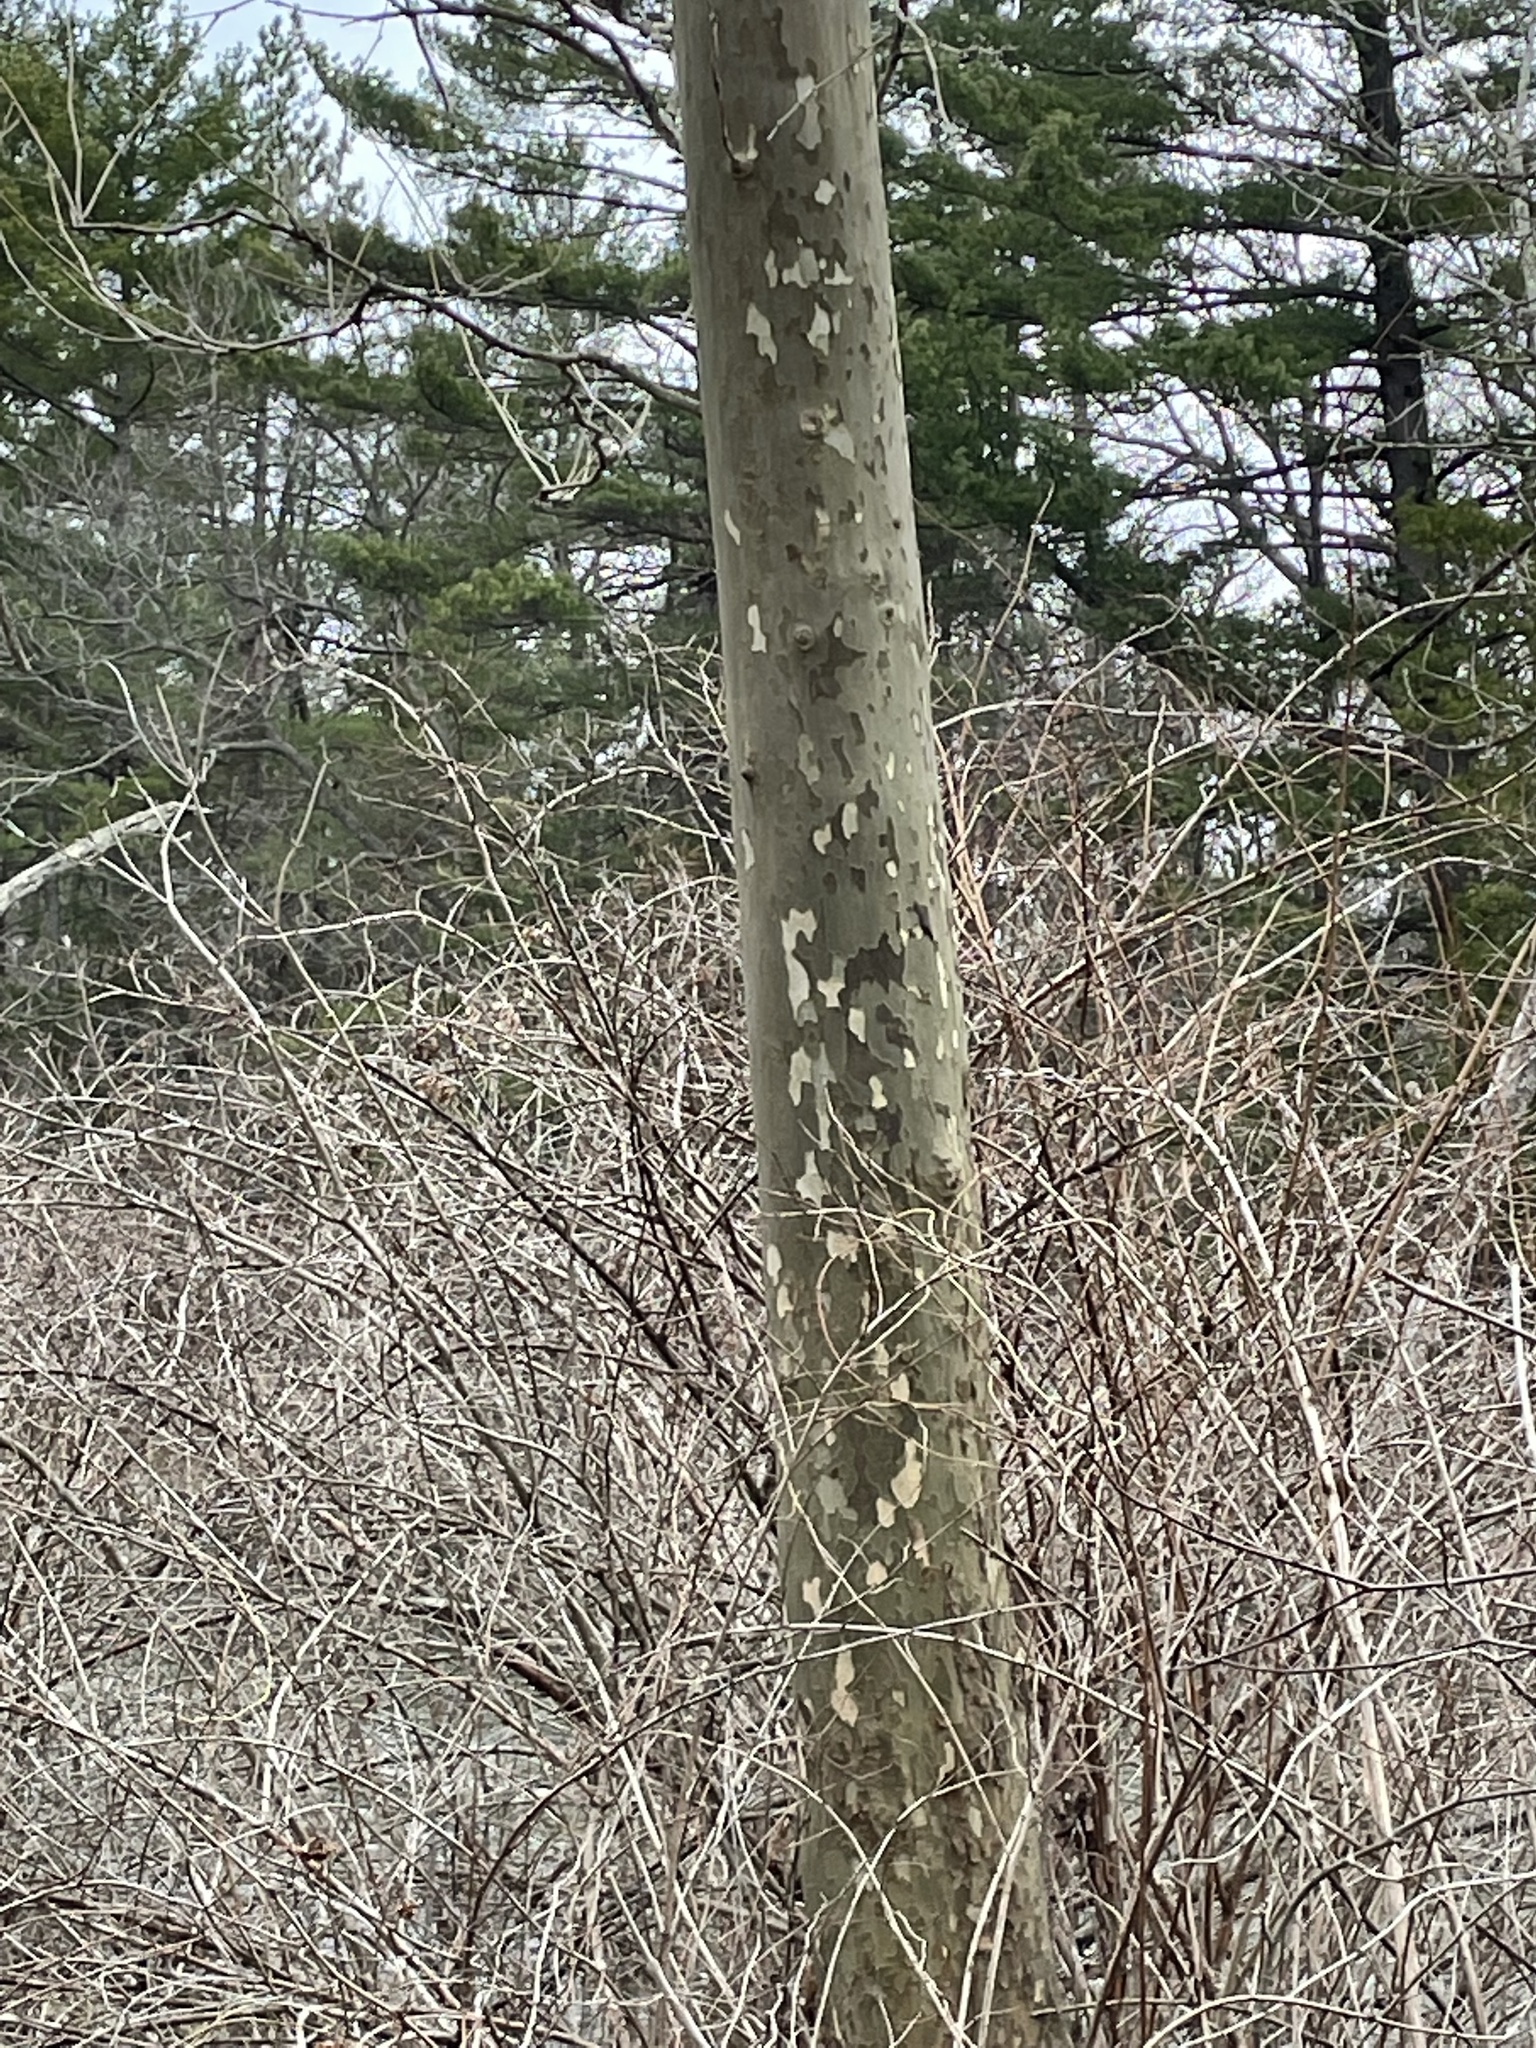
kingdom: Plantae
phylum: Tracheophyta
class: Magnoliopsida
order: Proteales
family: Platanaceae
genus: Platanus
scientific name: Platanus occidentalis
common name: American sycamore
